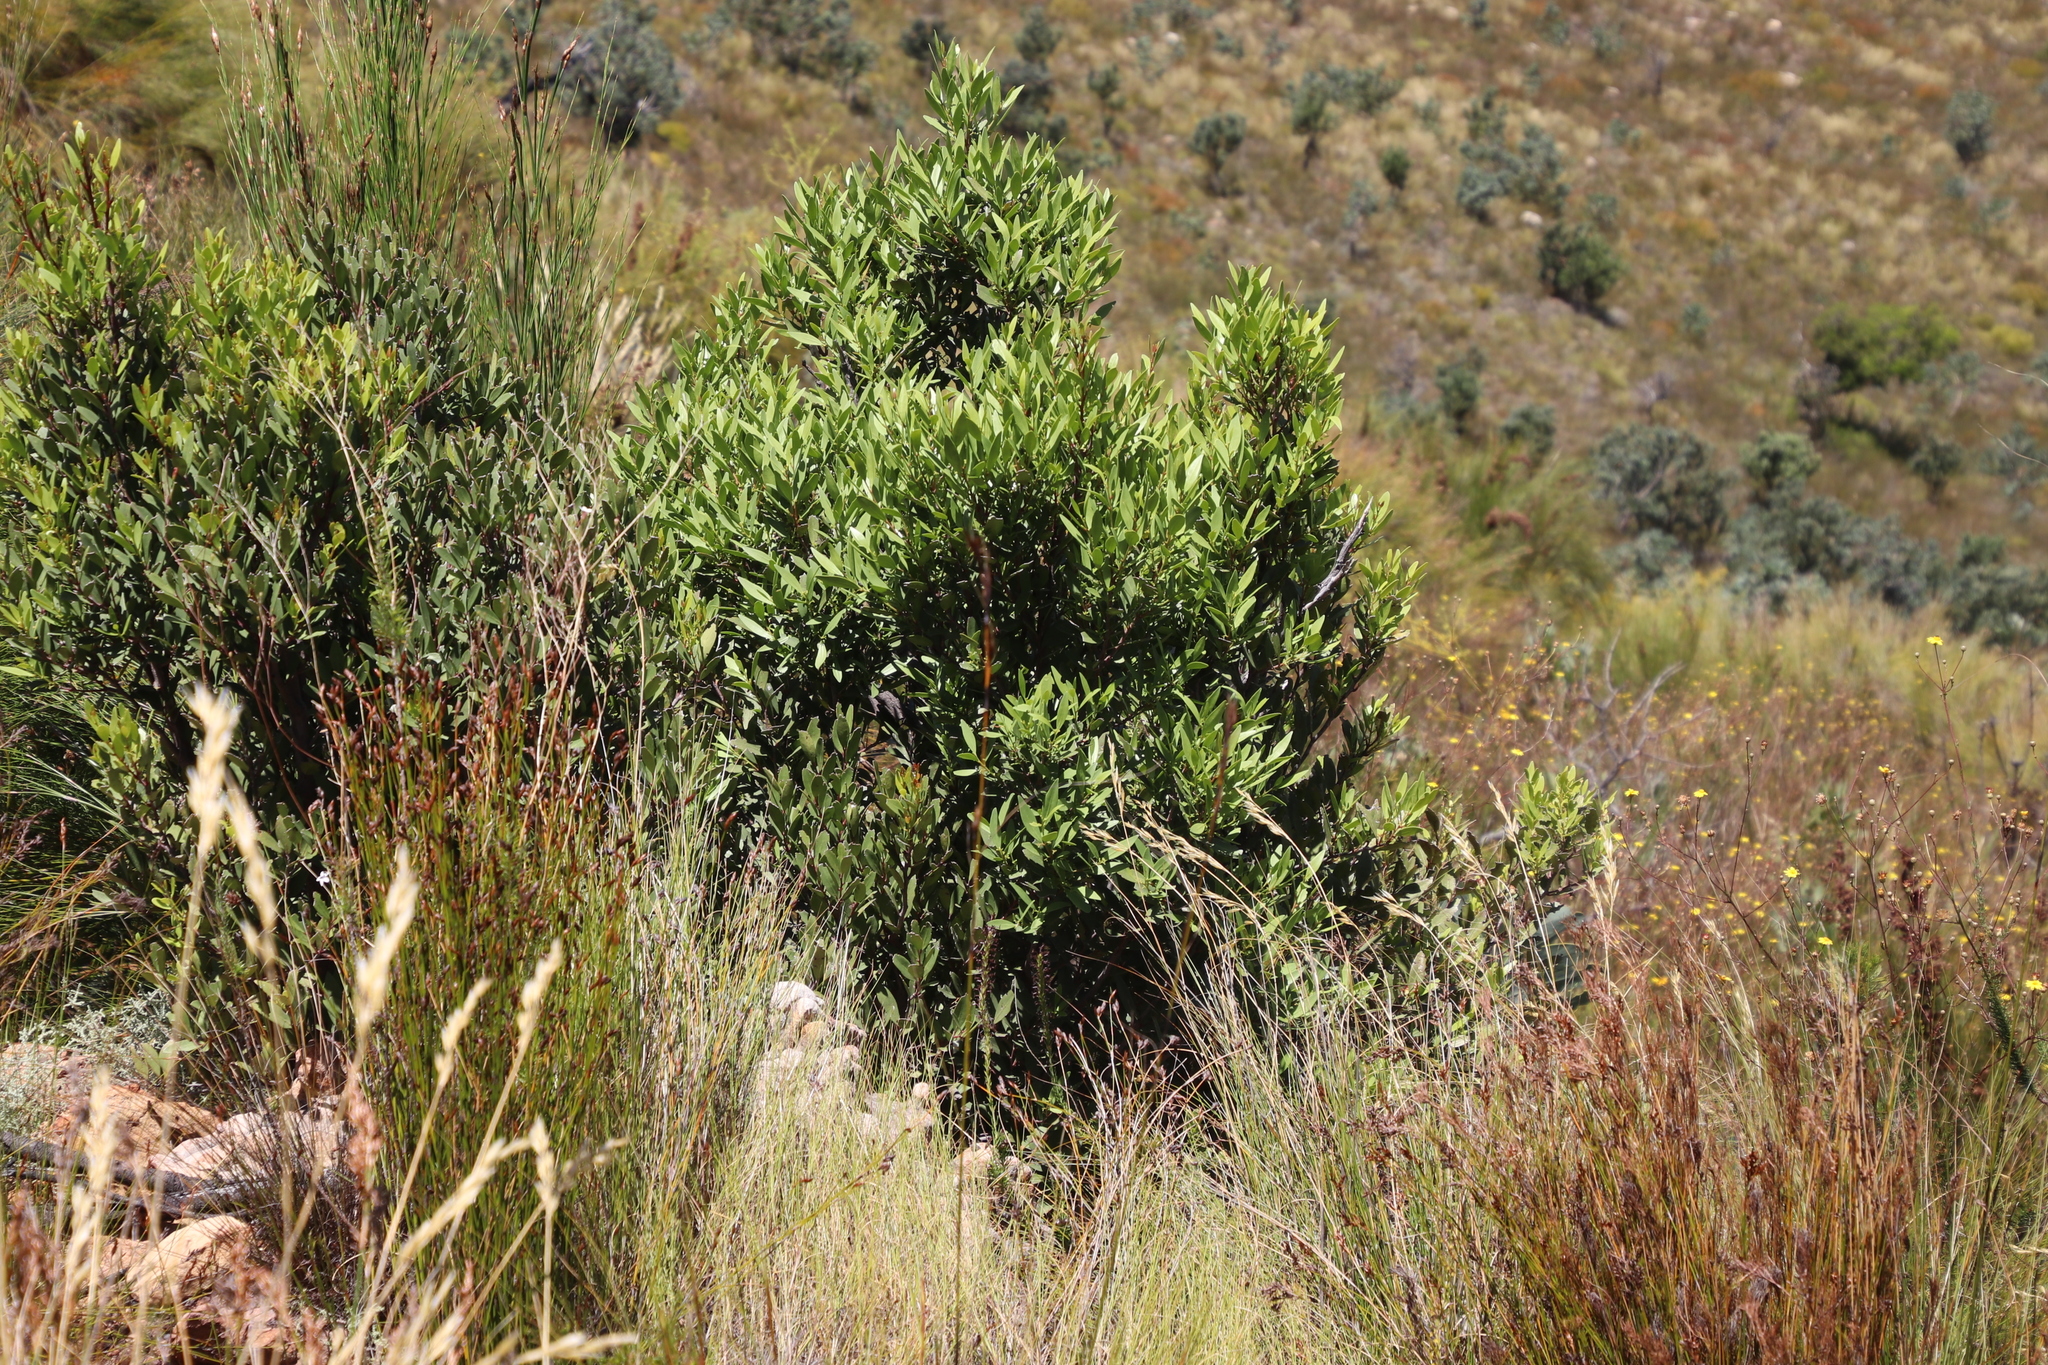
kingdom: Plantae
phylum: Tracheophyta
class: Magnoliopsida
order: Proteales
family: Proteaceae
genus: Protea
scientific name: Protea laurifolia
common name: Grey-leaf sugarbsh
